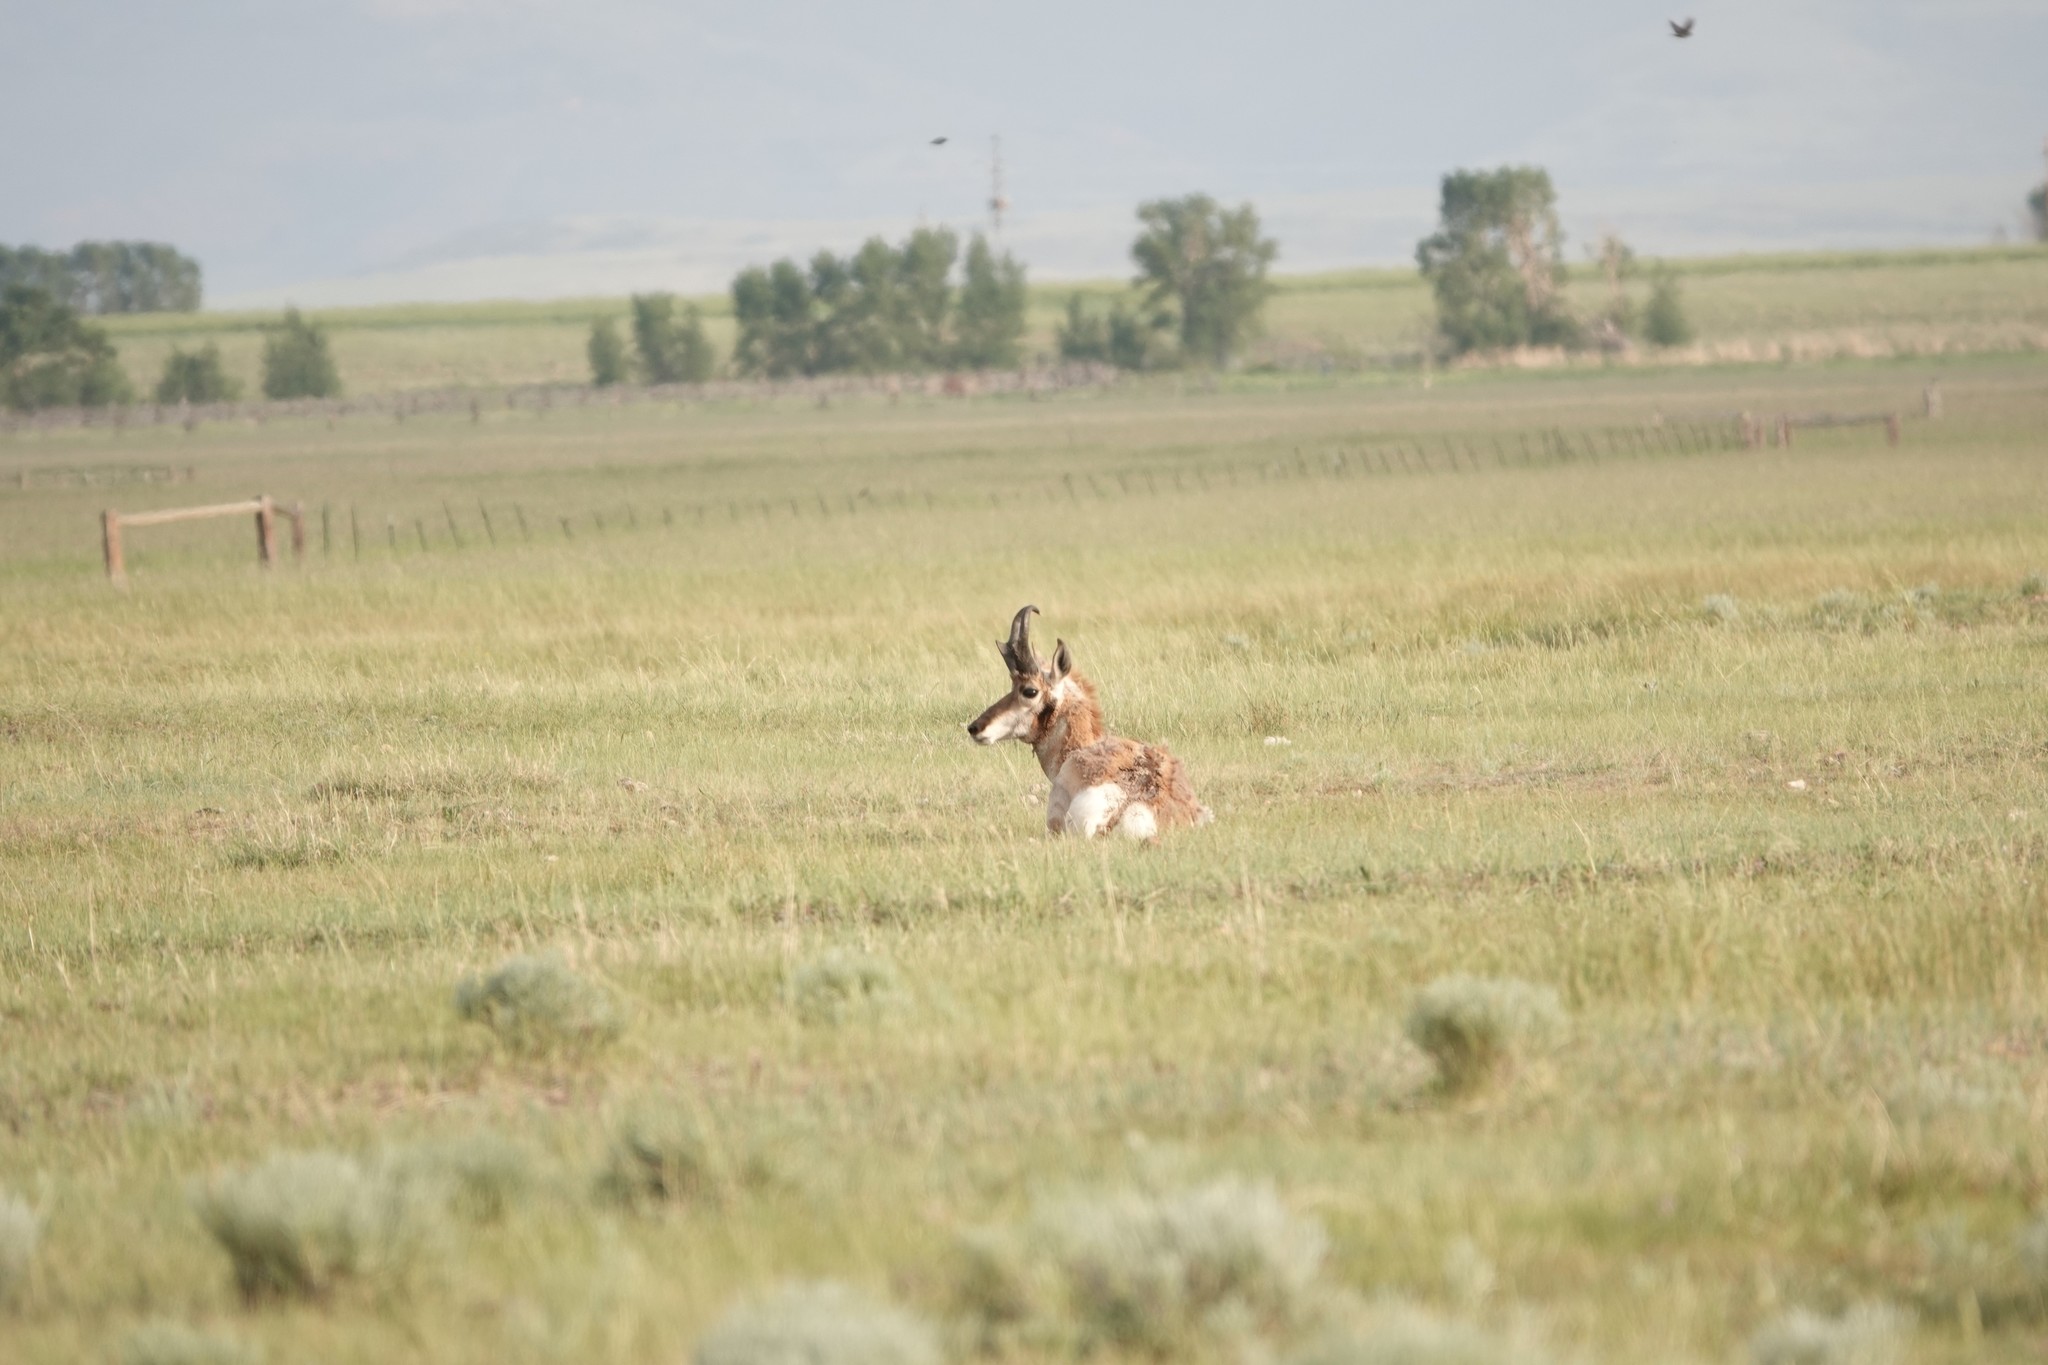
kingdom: Animalia
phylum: Chordata
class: Mammalia
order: Artiodactyla
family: Antilocapridae
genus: Antilocapra
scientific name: Antilocapra americana
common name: Pronghorn
